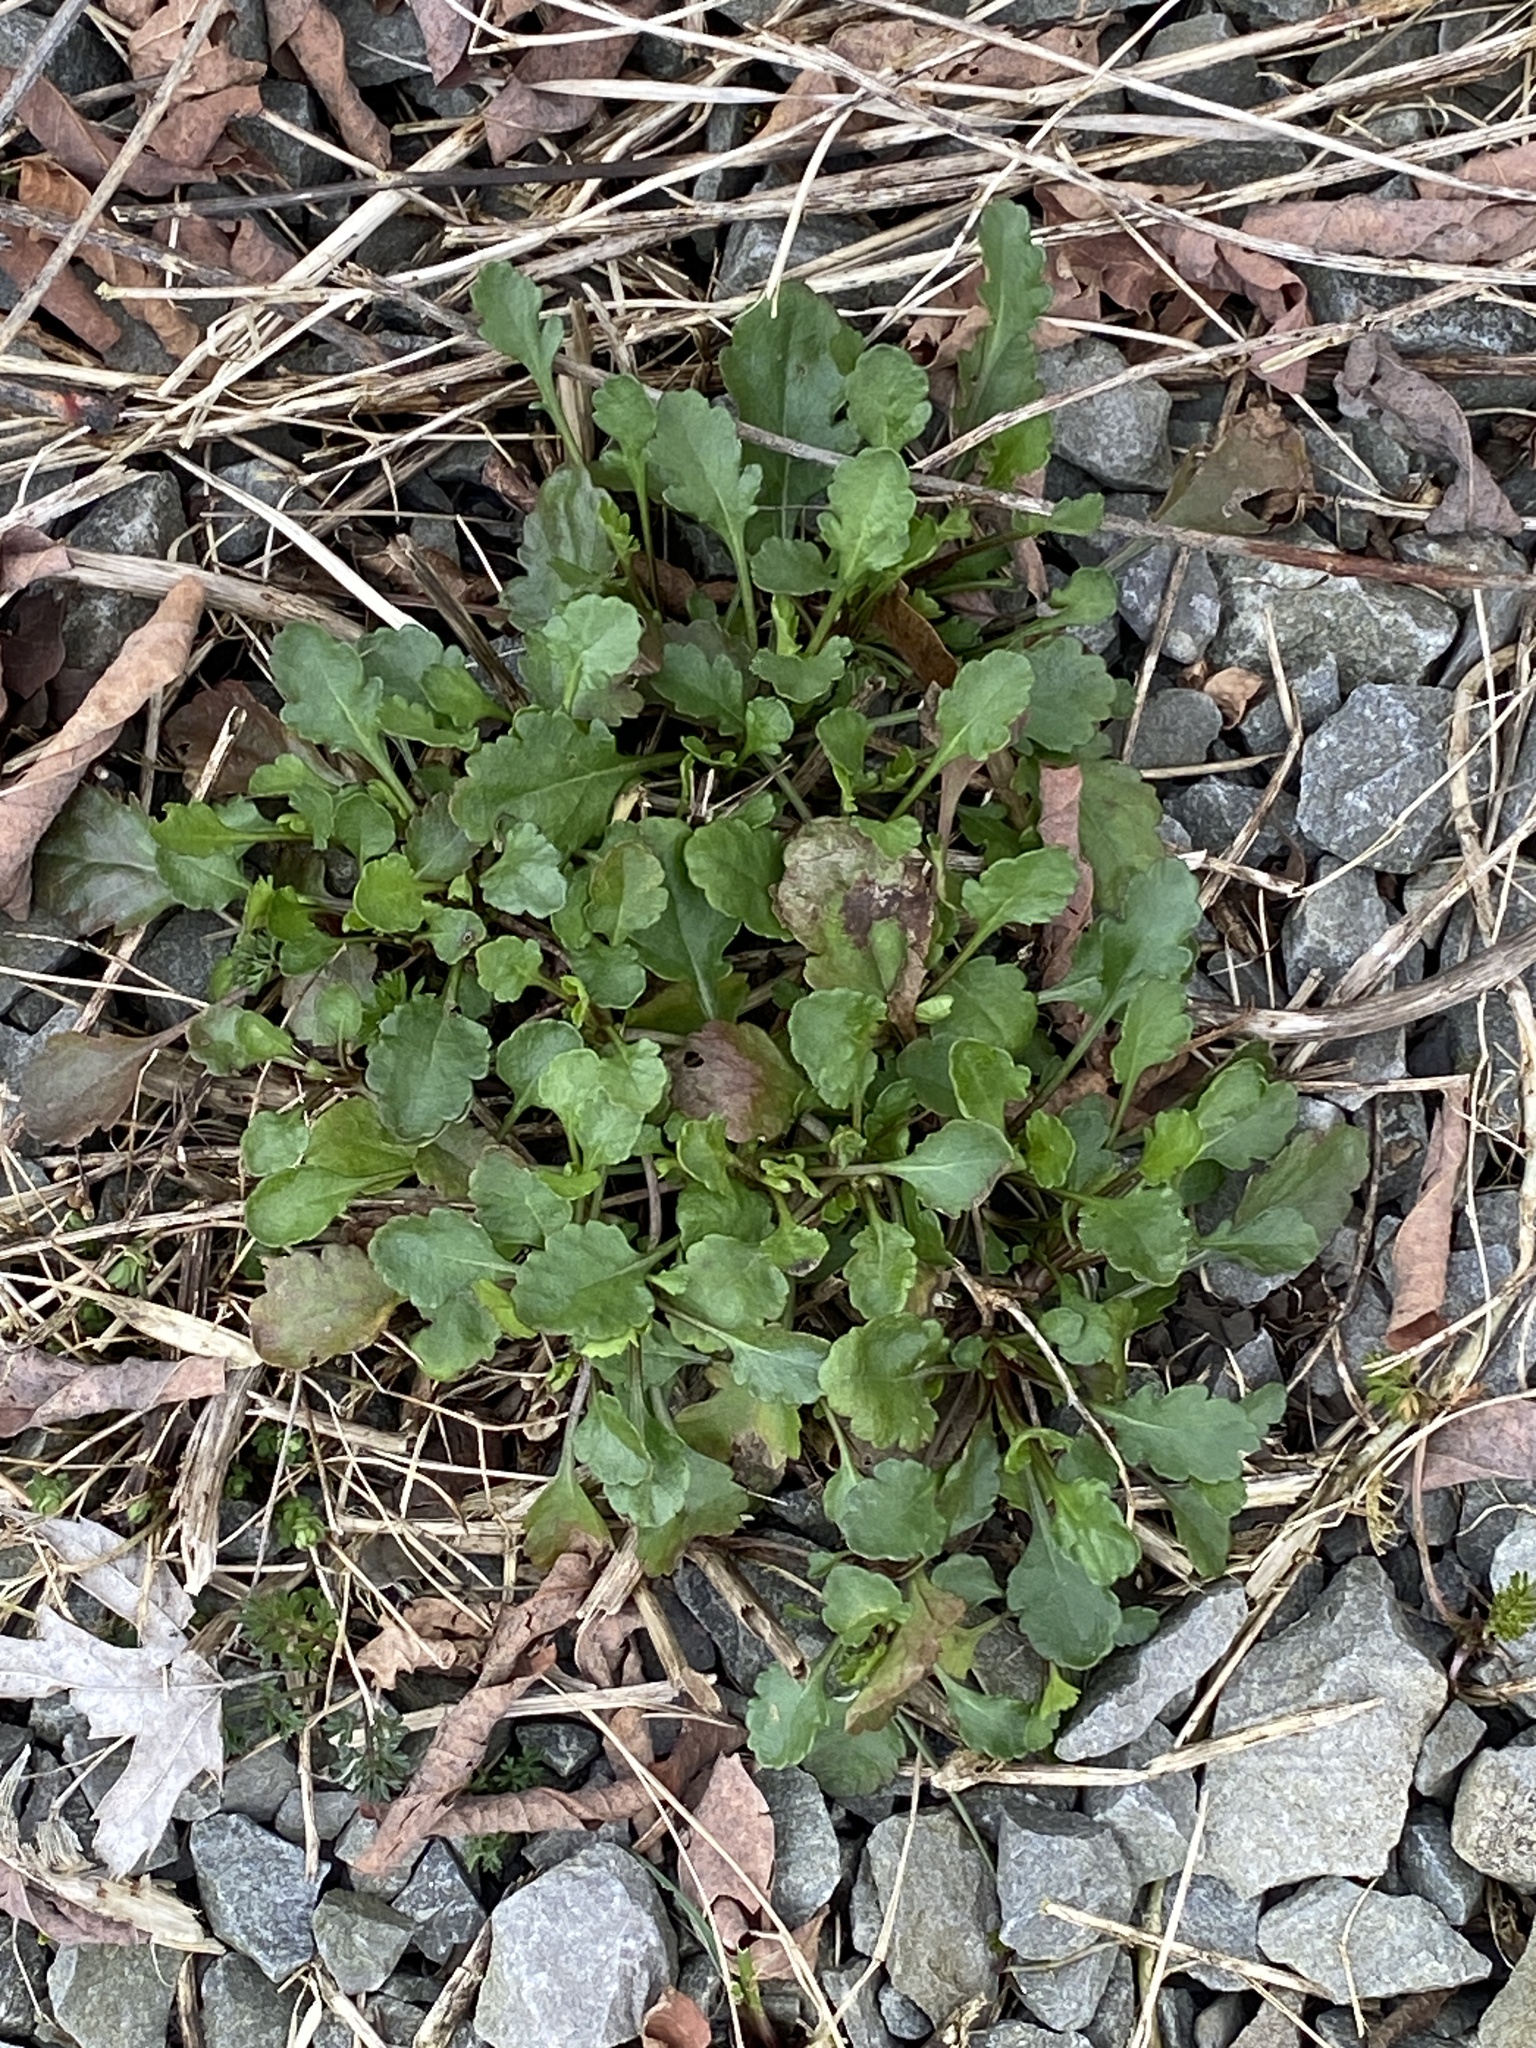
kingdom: Plantae
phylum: Tracheophyta
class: Magnoliopsida
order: Asterales
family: Asteraceae
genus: Leucanthemum
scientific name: Leucanthemum vulgare
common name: Oxeye daisy
